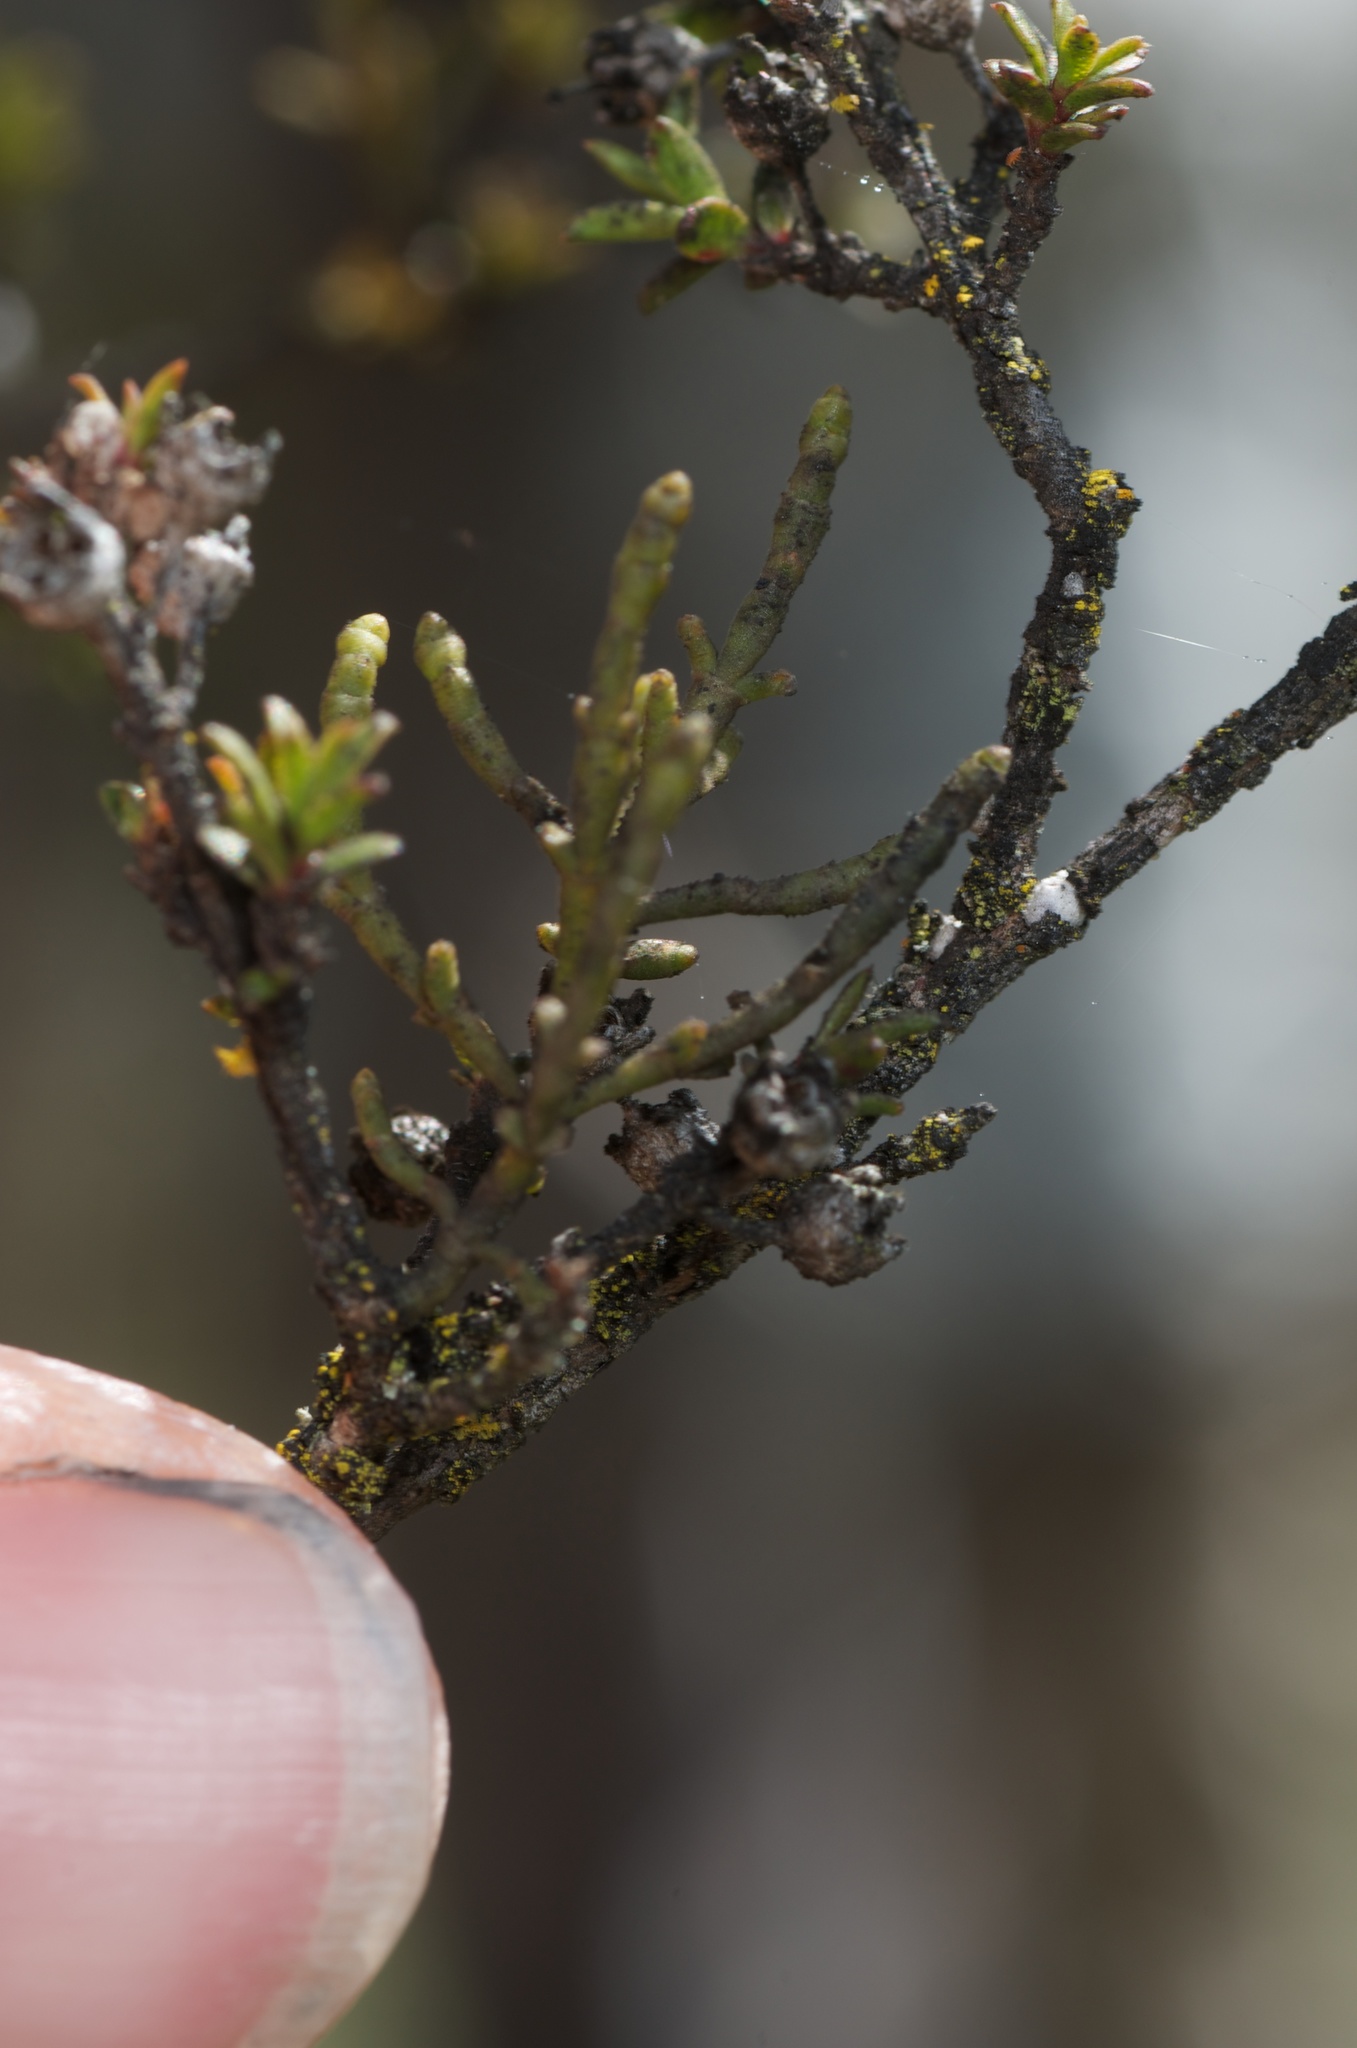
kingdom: Plantae
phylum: Tracheophyta
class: Magnoliopsida
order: Santalales
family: Viscaceae
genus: Korthalsella
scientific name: Korthalsella salicornioides
